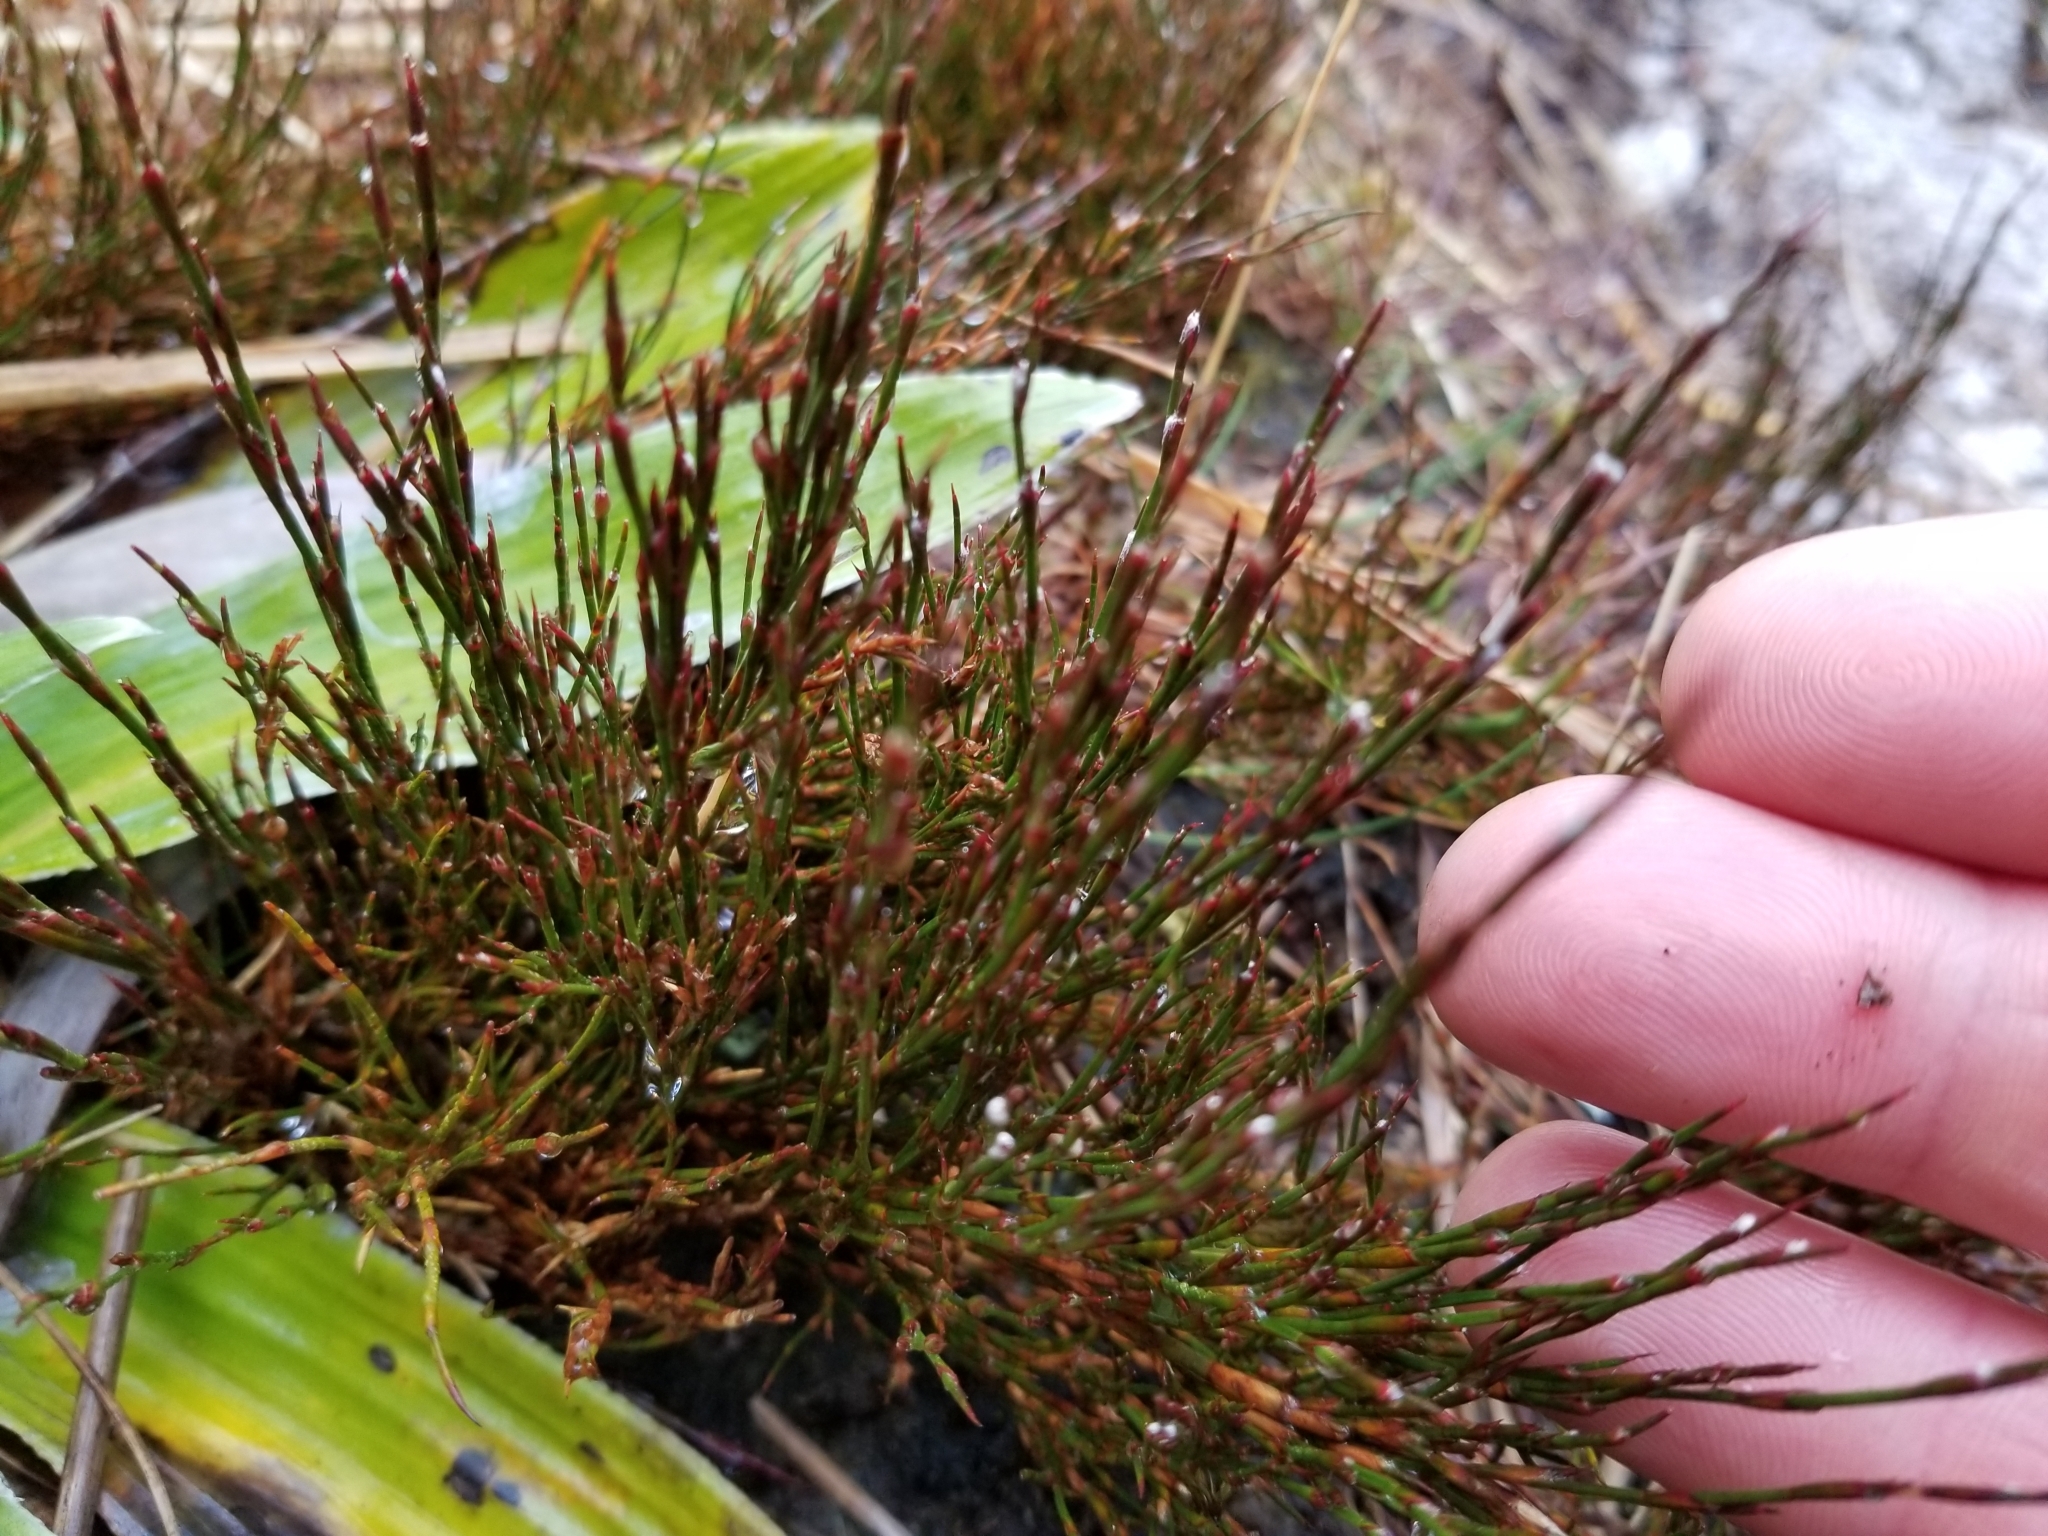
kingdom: Plantae
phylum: Tracheophyta
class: Liliopsida
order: Poales
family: Restionaceae
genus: Empodisma
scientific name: Empodisma minus
